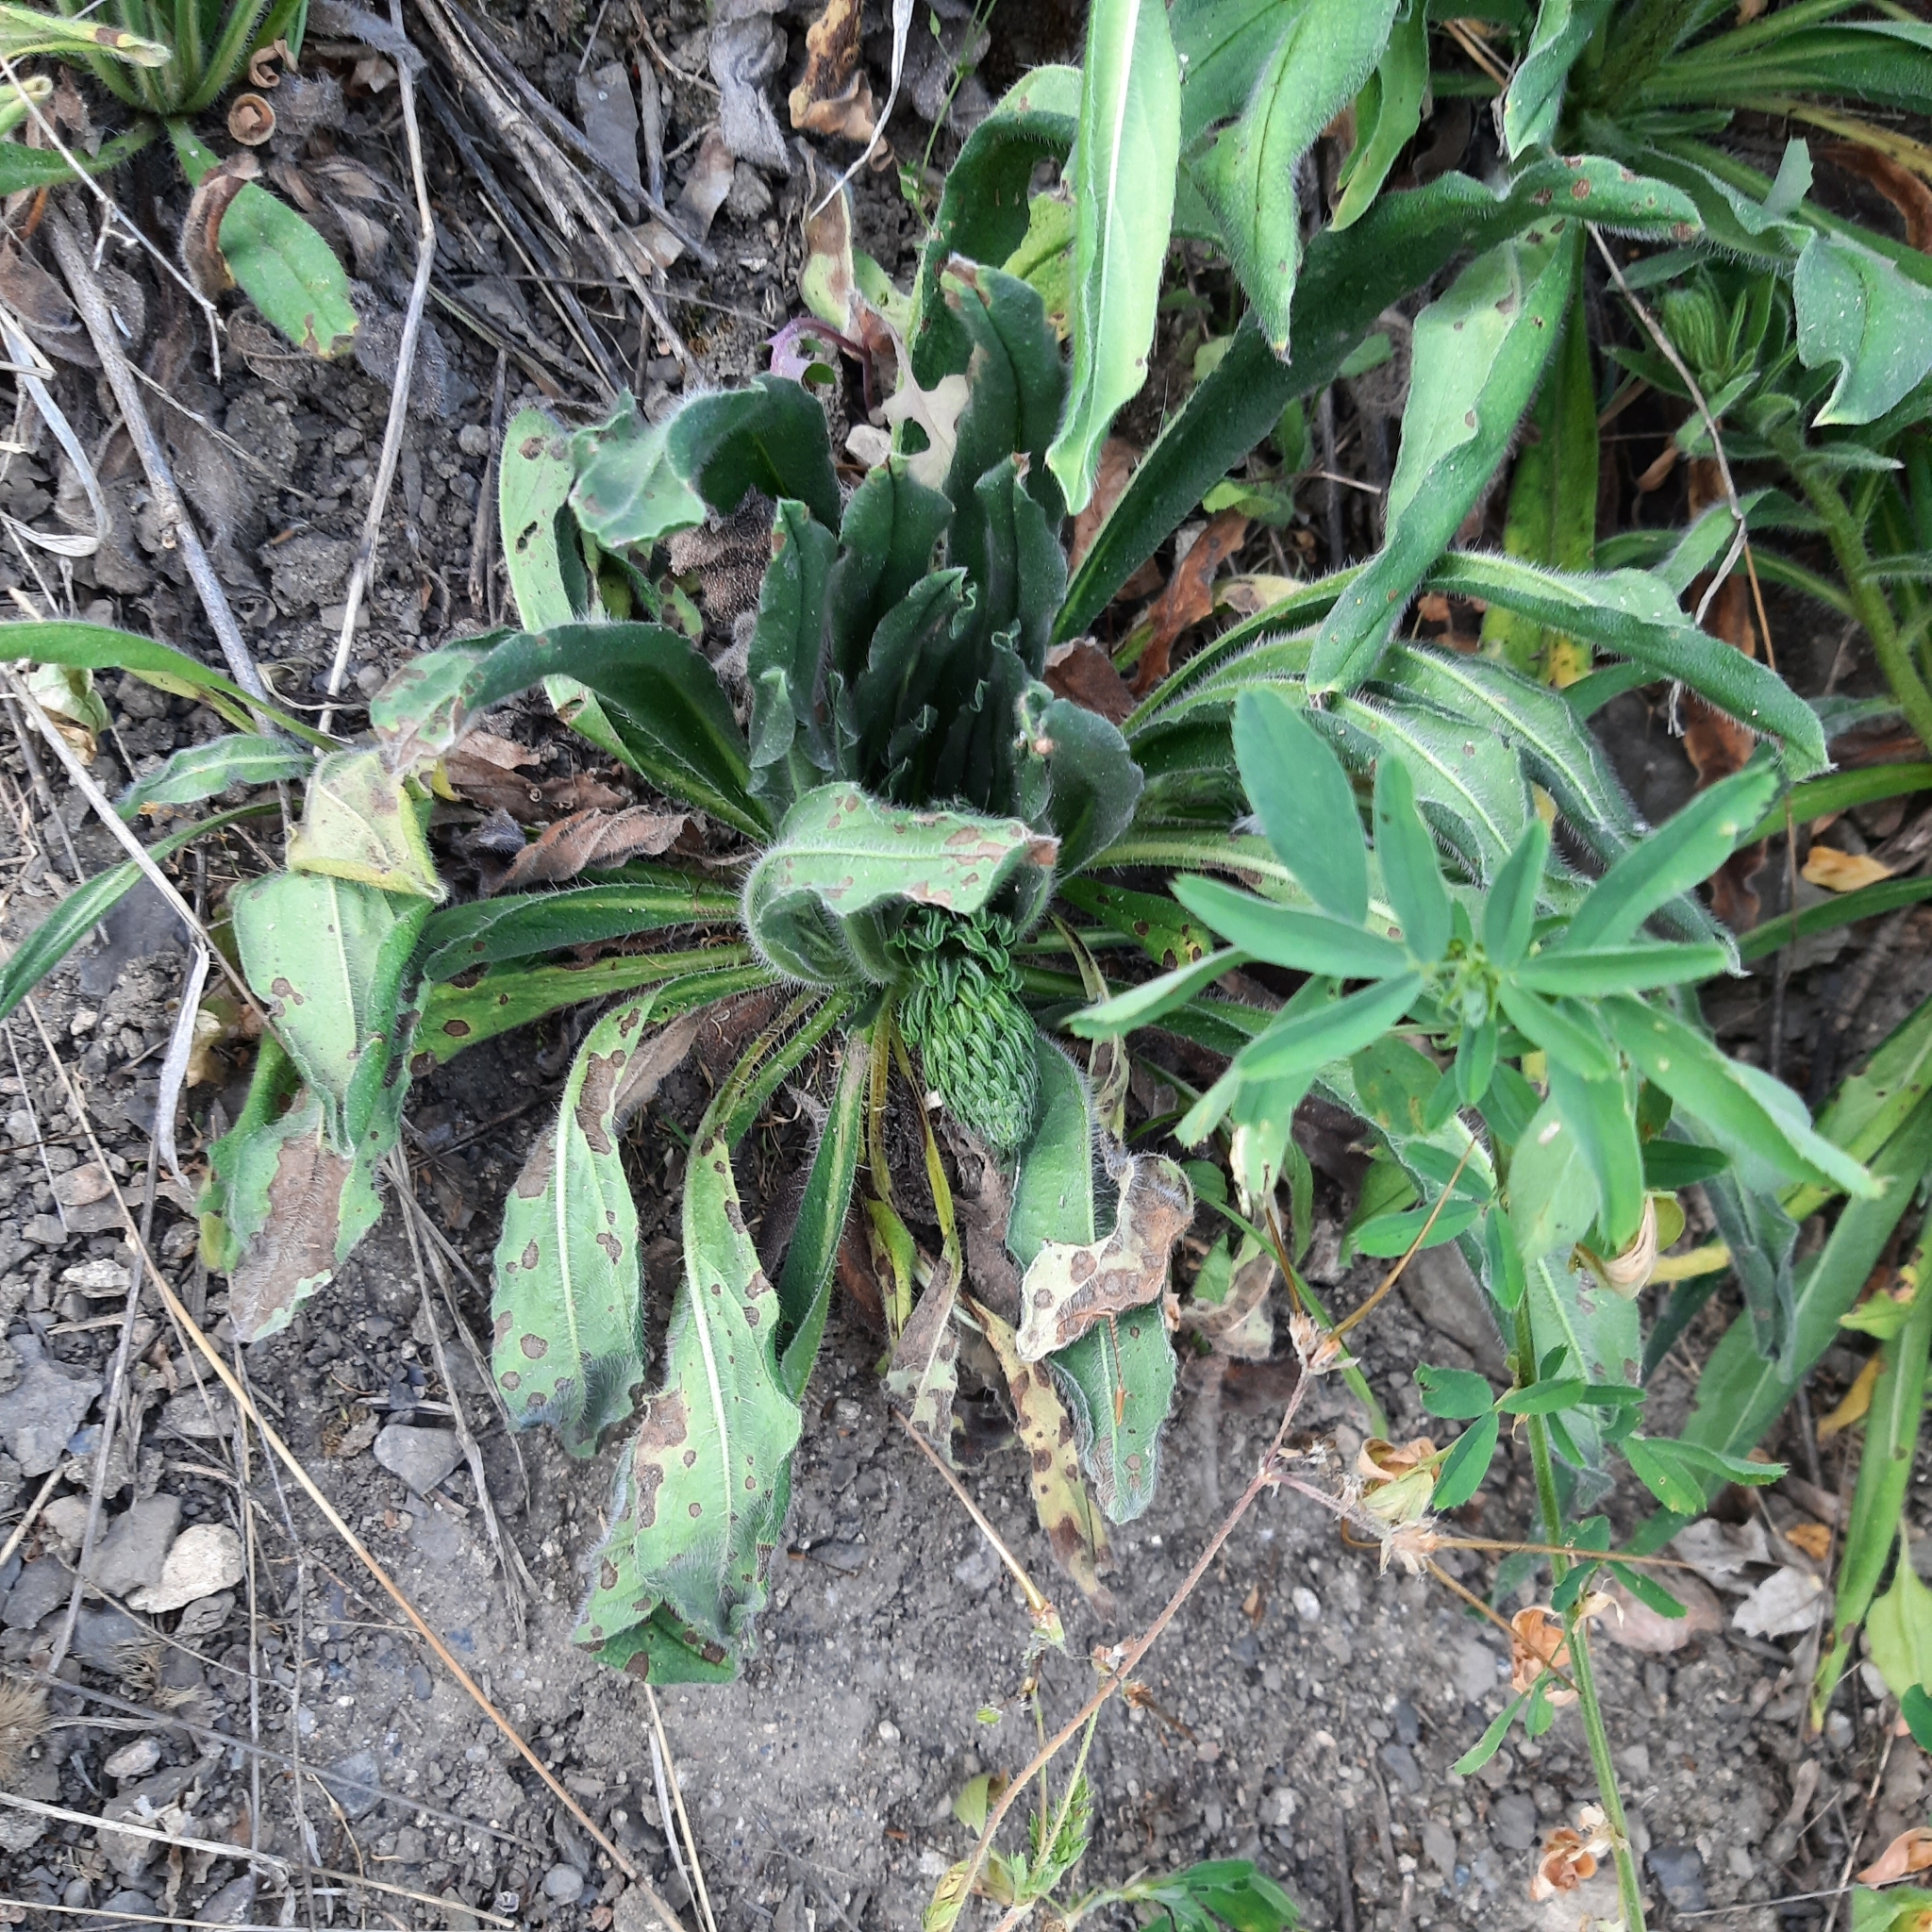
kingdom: Plantae
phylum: Tracheophyta
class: Magnoliopsida
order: Boraginales
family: Boraginaceae
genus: Echium
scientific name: Echium vulgare
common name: Common viper's bugloss
